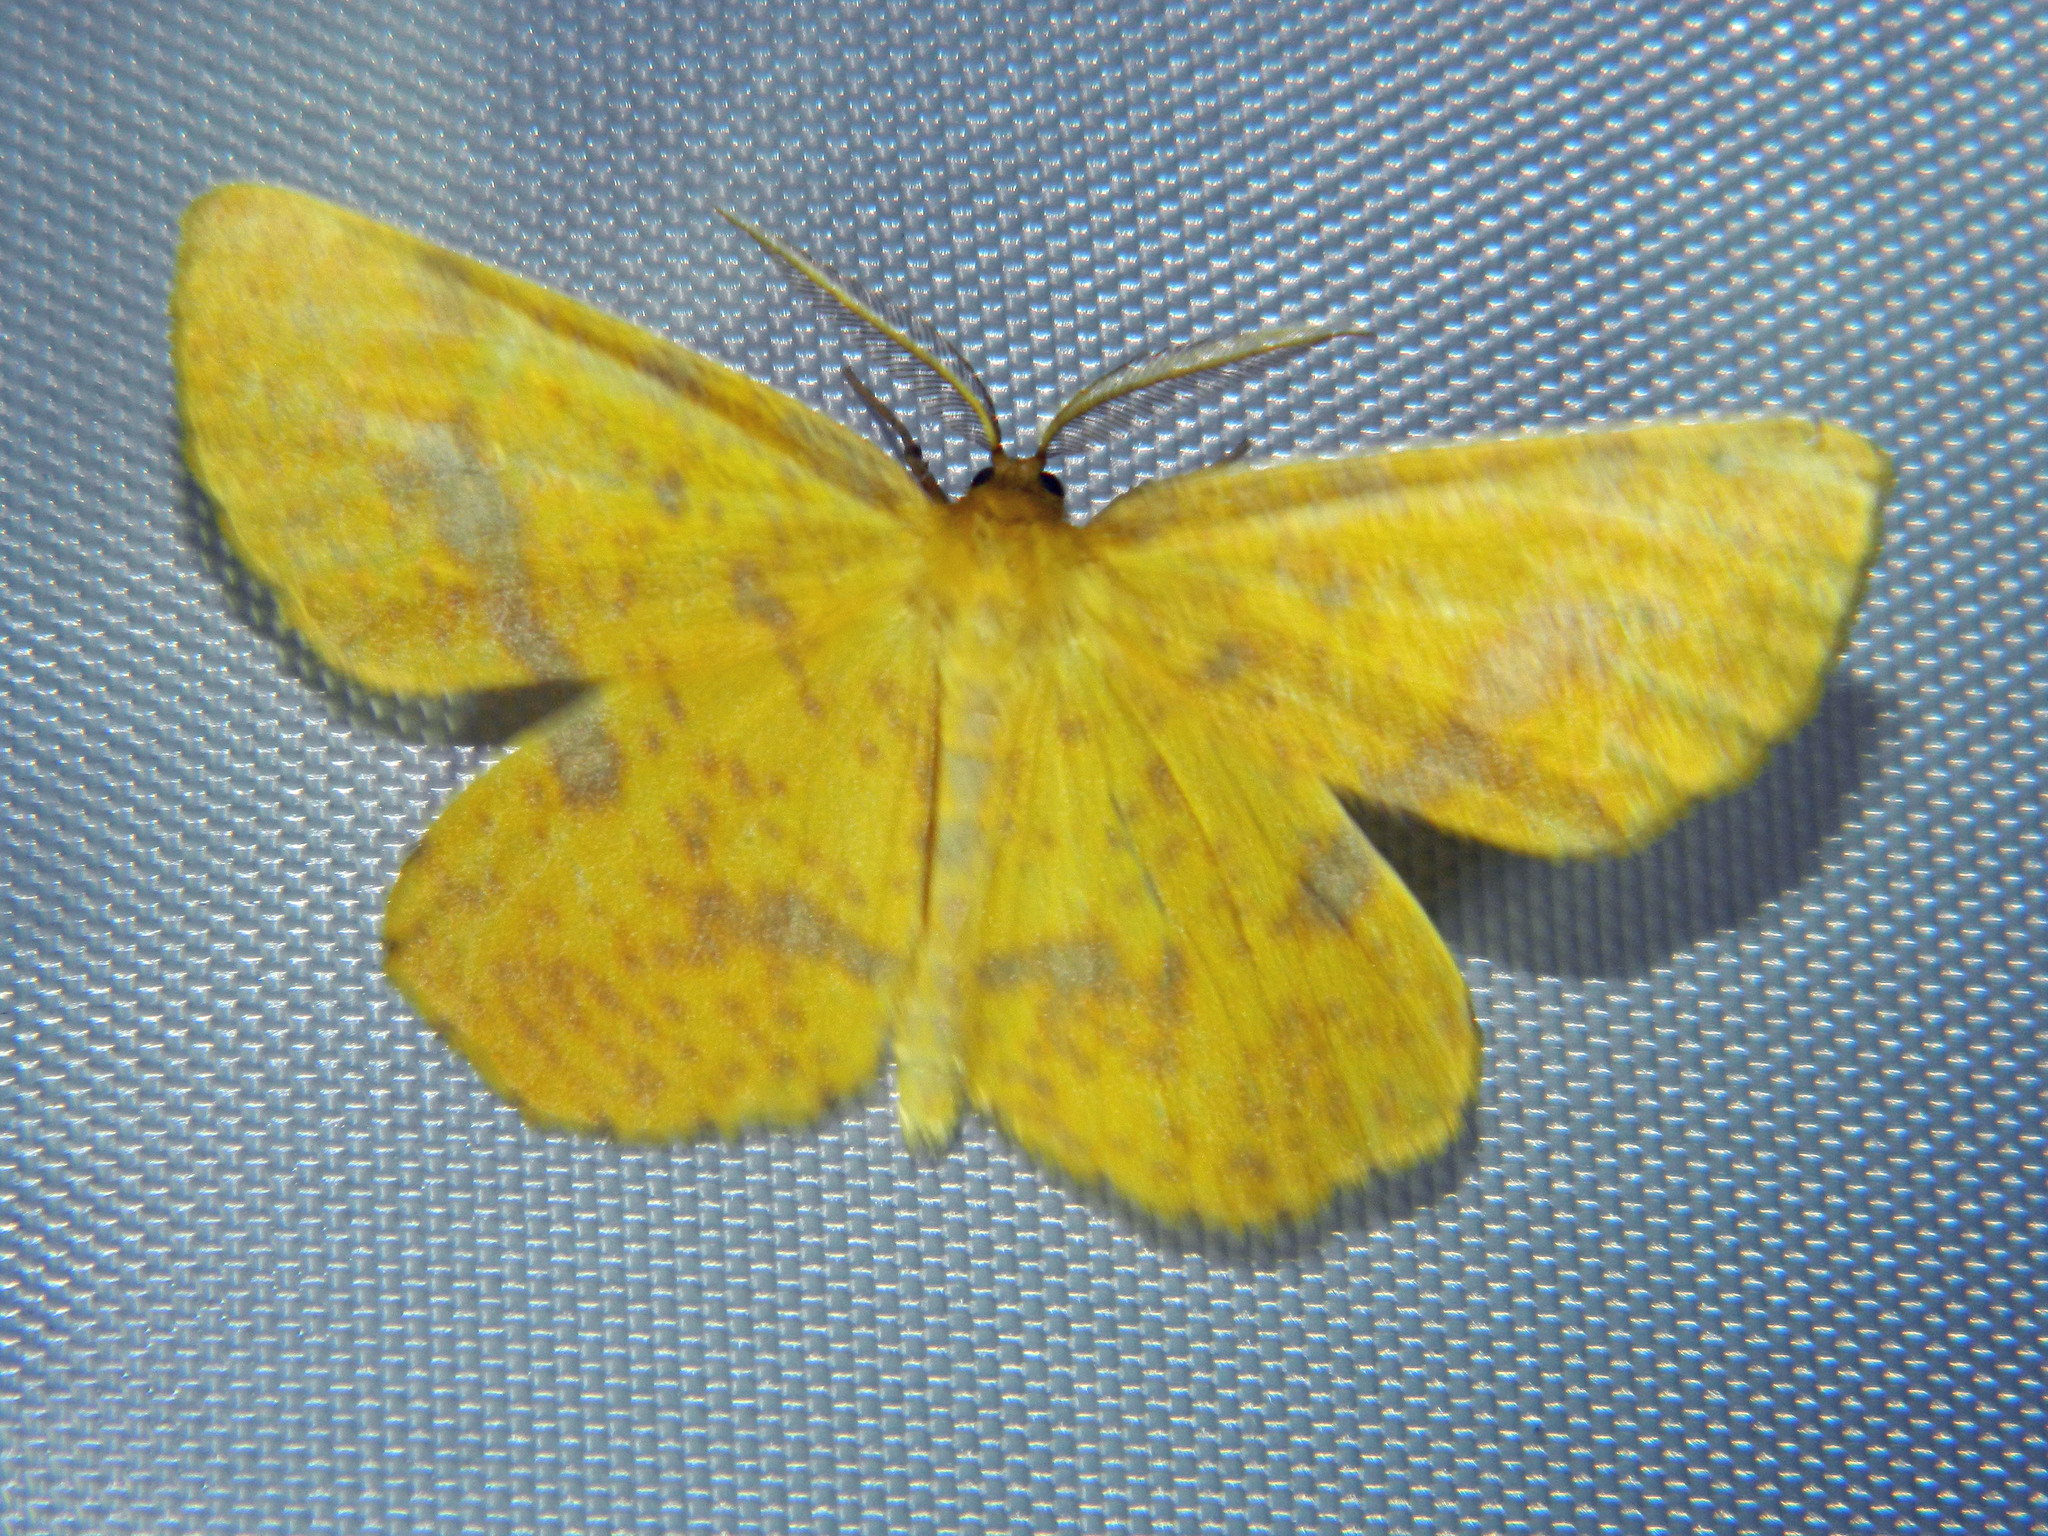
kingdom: Animalia
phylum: Arthropoda
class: Insecta
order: Lepidoptera
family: Geometridae
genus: Xanthotype
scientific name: Xanthotype
